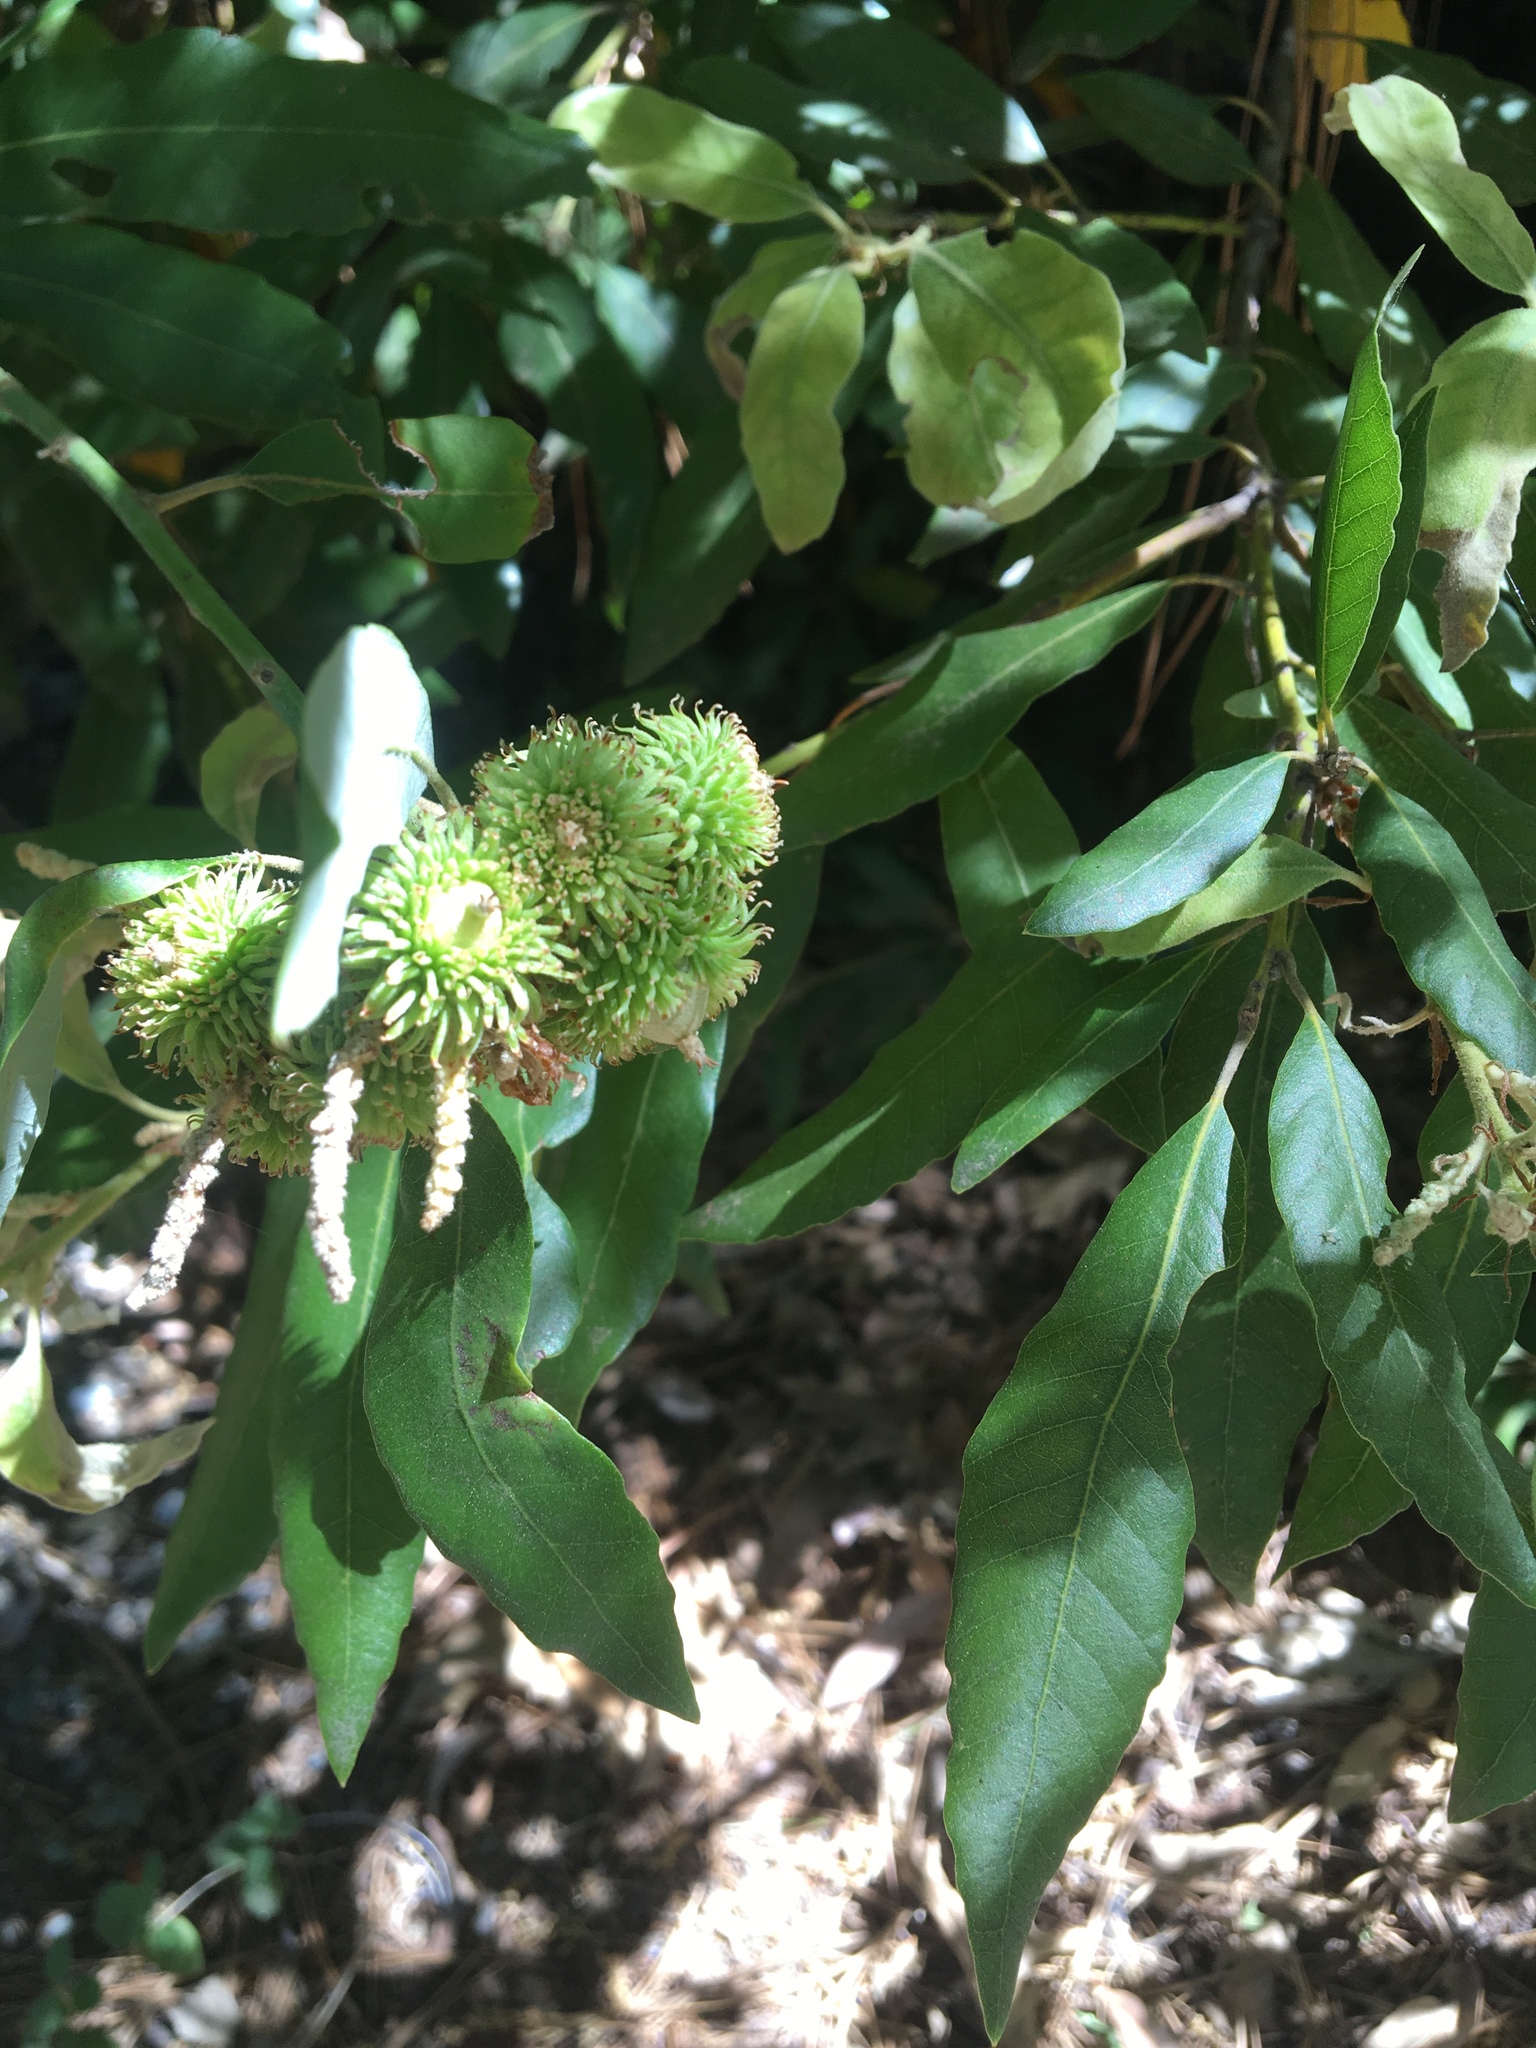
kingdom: Plantae
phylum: Tracheophyta
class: Magnoliopsida
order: Fagales
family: Fagaceae
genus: Notholithocarpus
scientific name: Notholithocarpus densiflorus
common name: Tan bark oak
